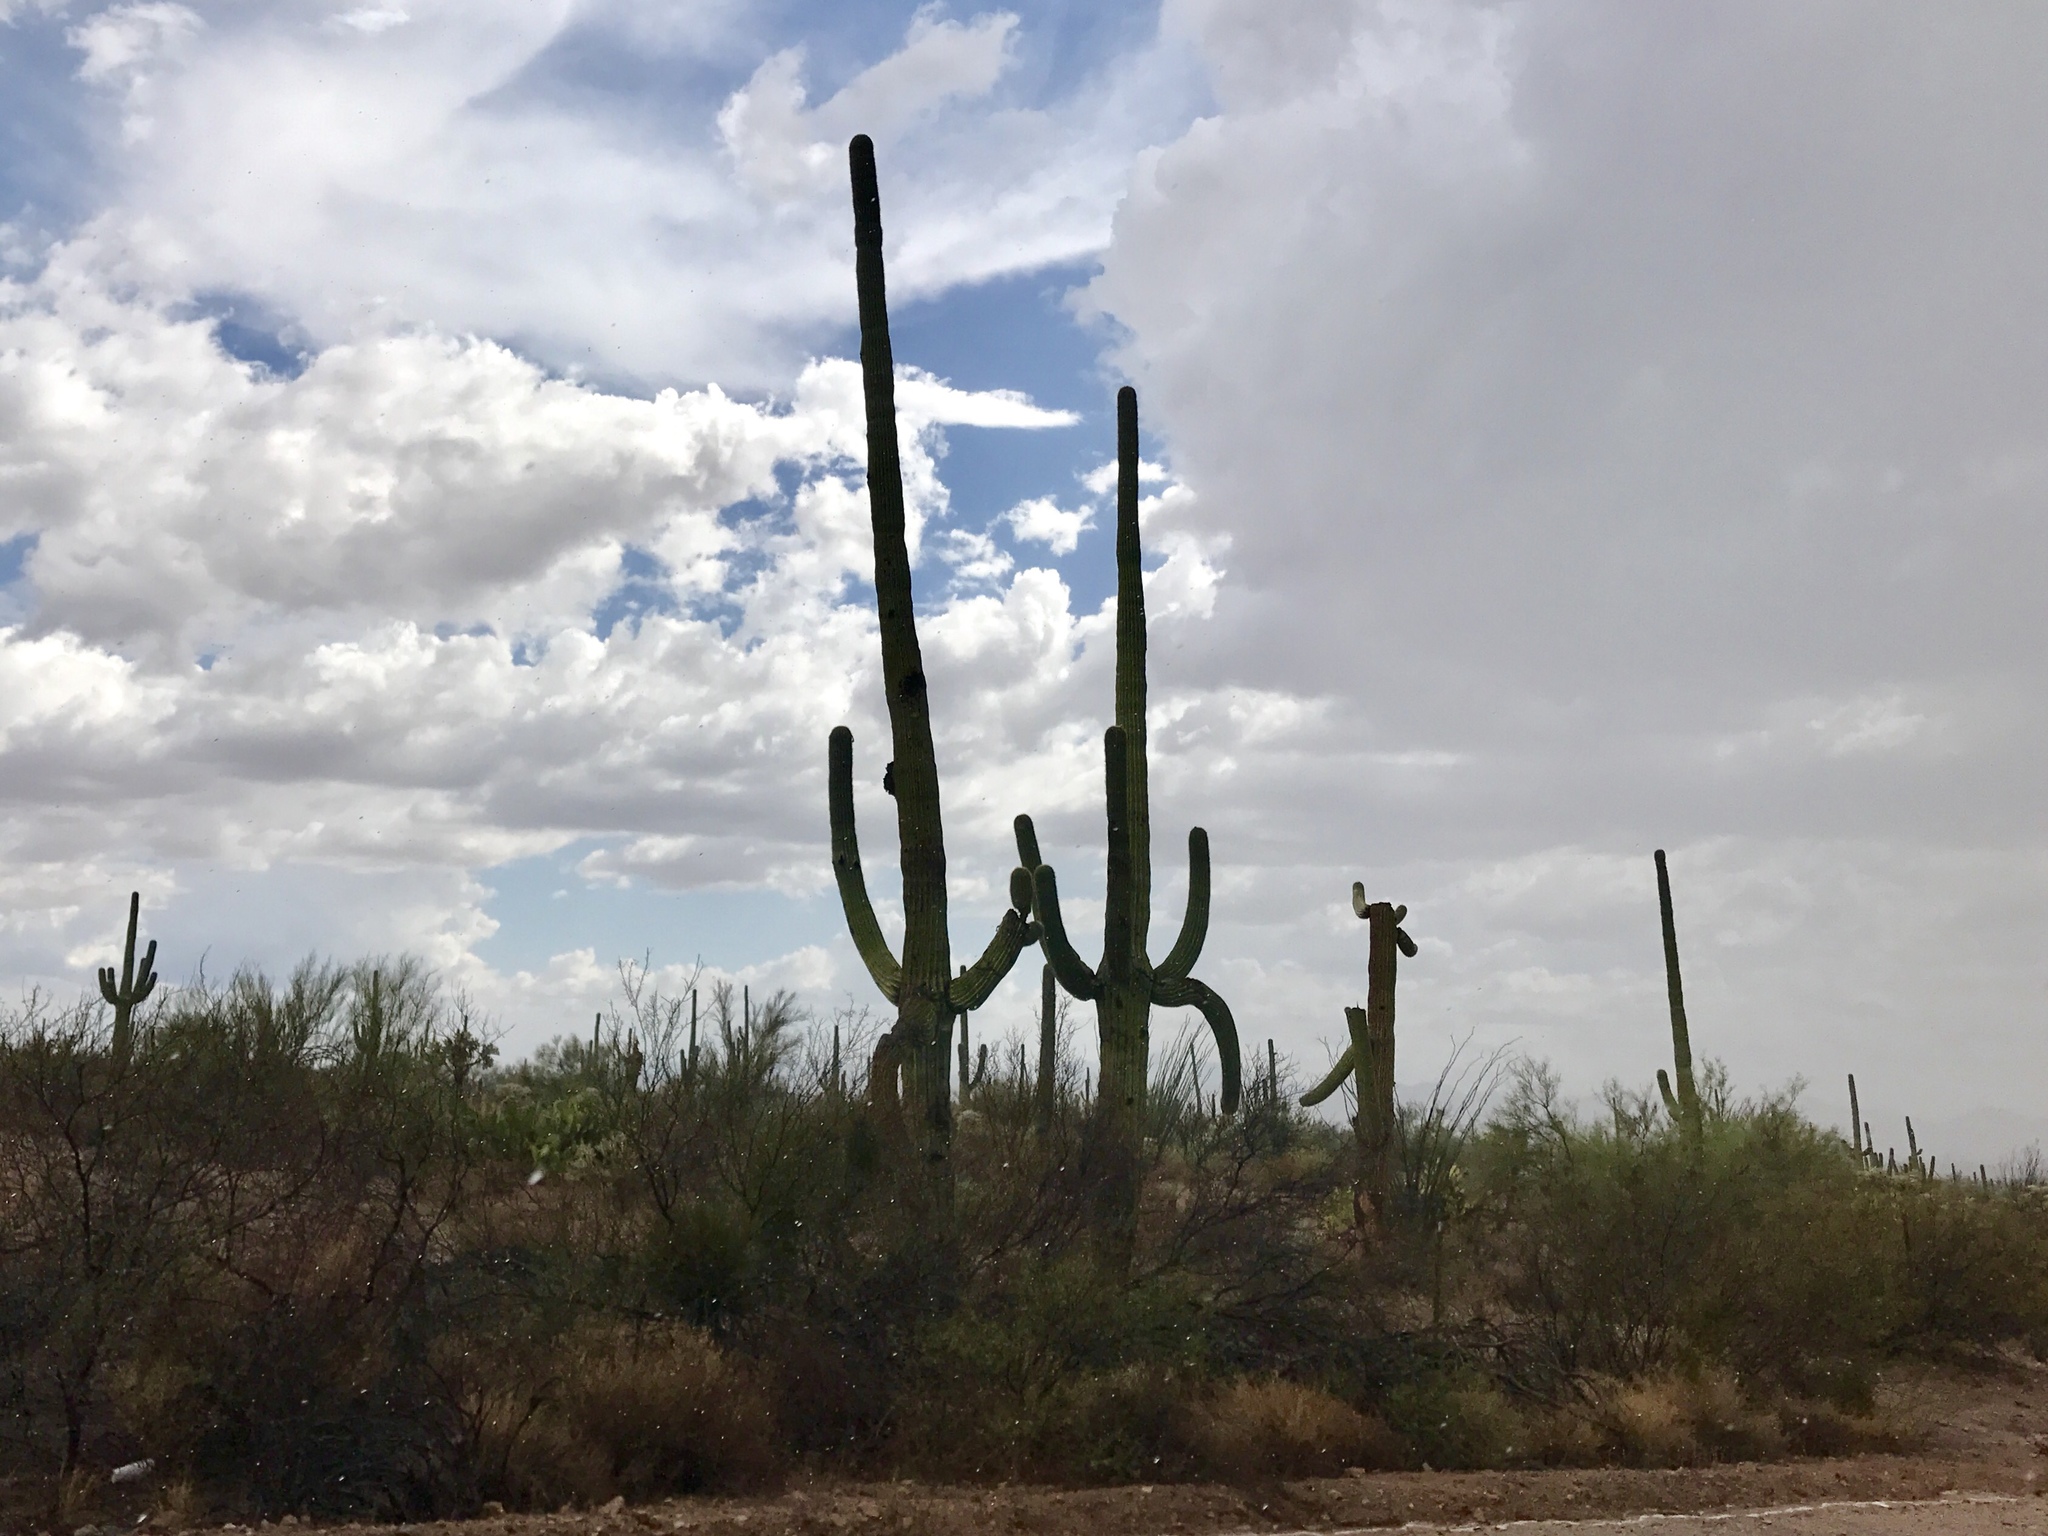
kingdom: Plantae
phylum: Tracheophyta
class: Magnoliopsida
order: Caryophyllales
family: Cactaceae
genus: Carnegiea
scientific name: Carnegiea gigantea
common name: Saguaro
